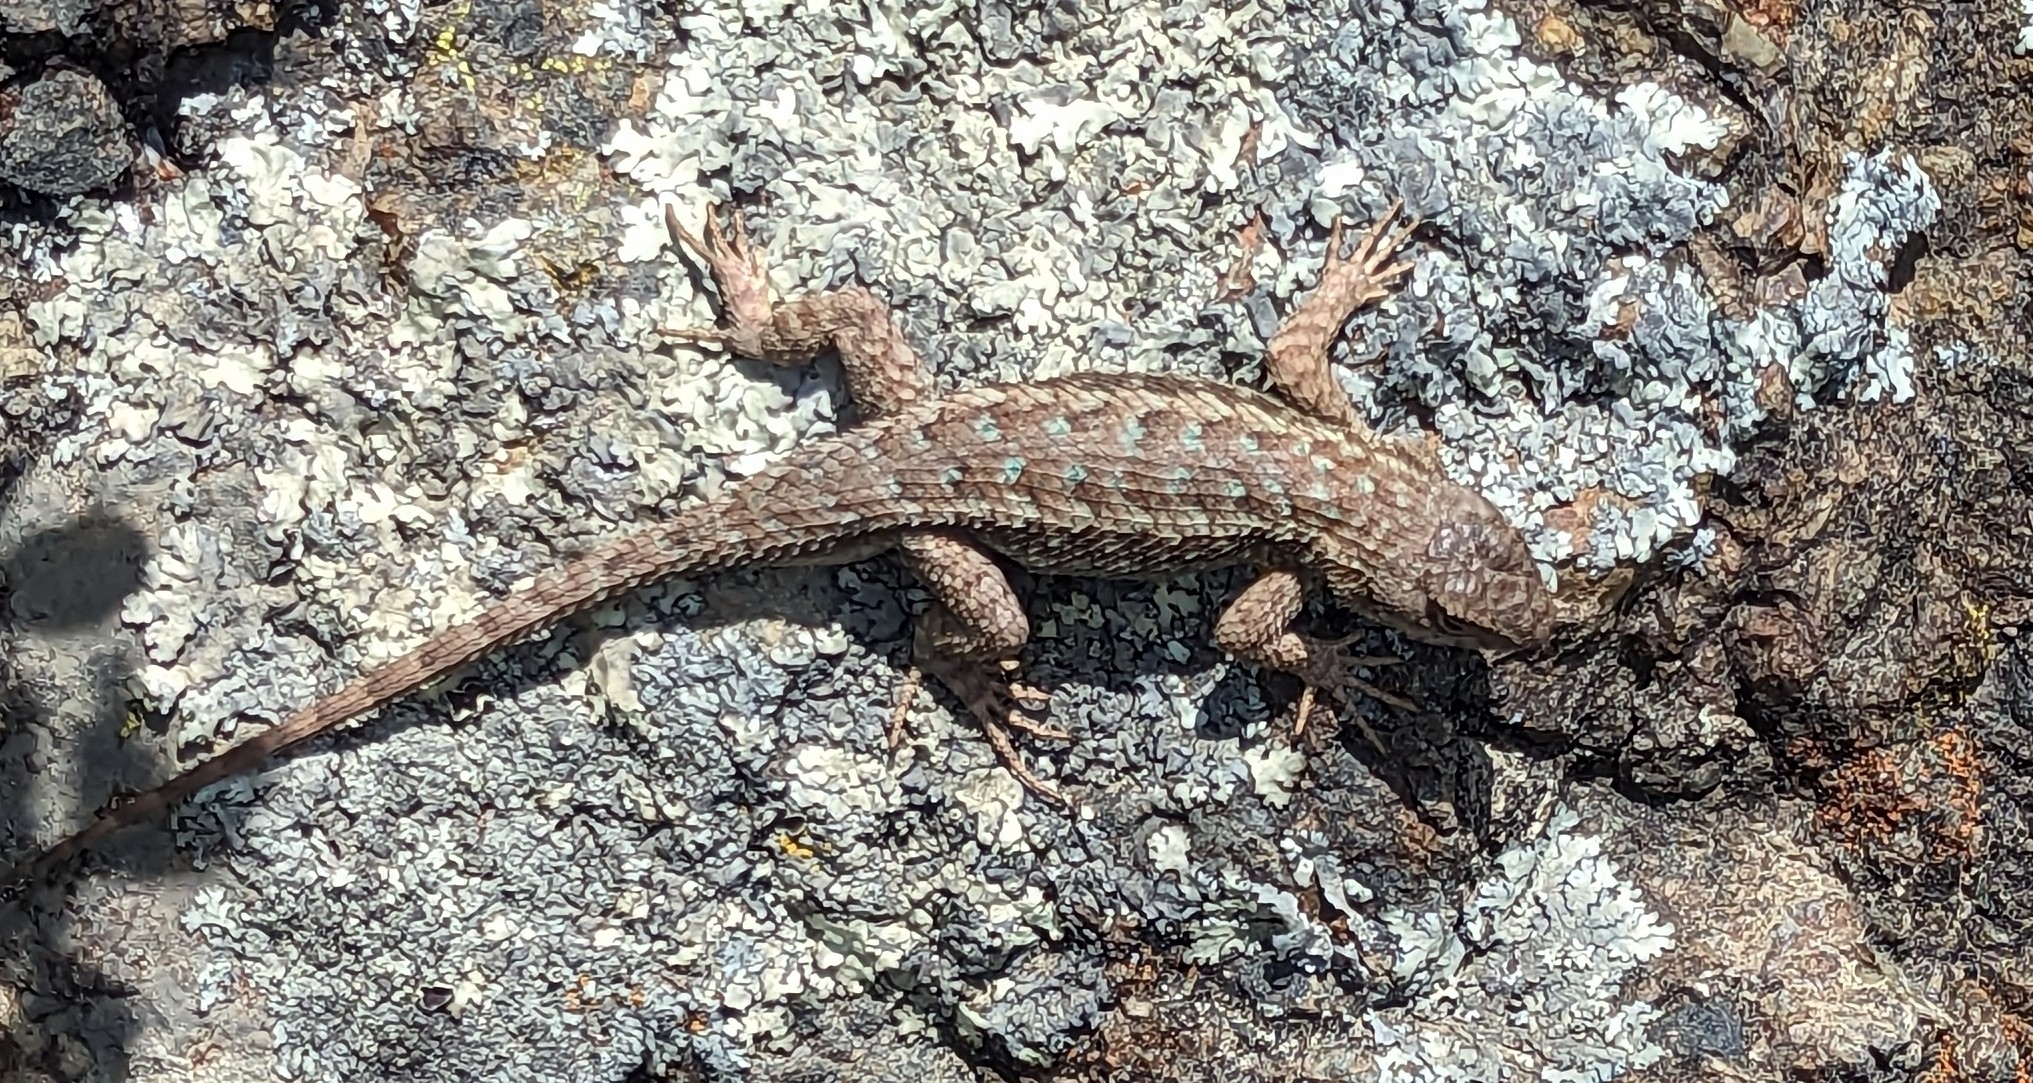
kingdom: Animalia
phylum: Chordata
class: Squamata
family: Phrynosomatidae
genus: Sceloporus
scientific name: Sceloporus occidentalis
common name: Western fence lizard
